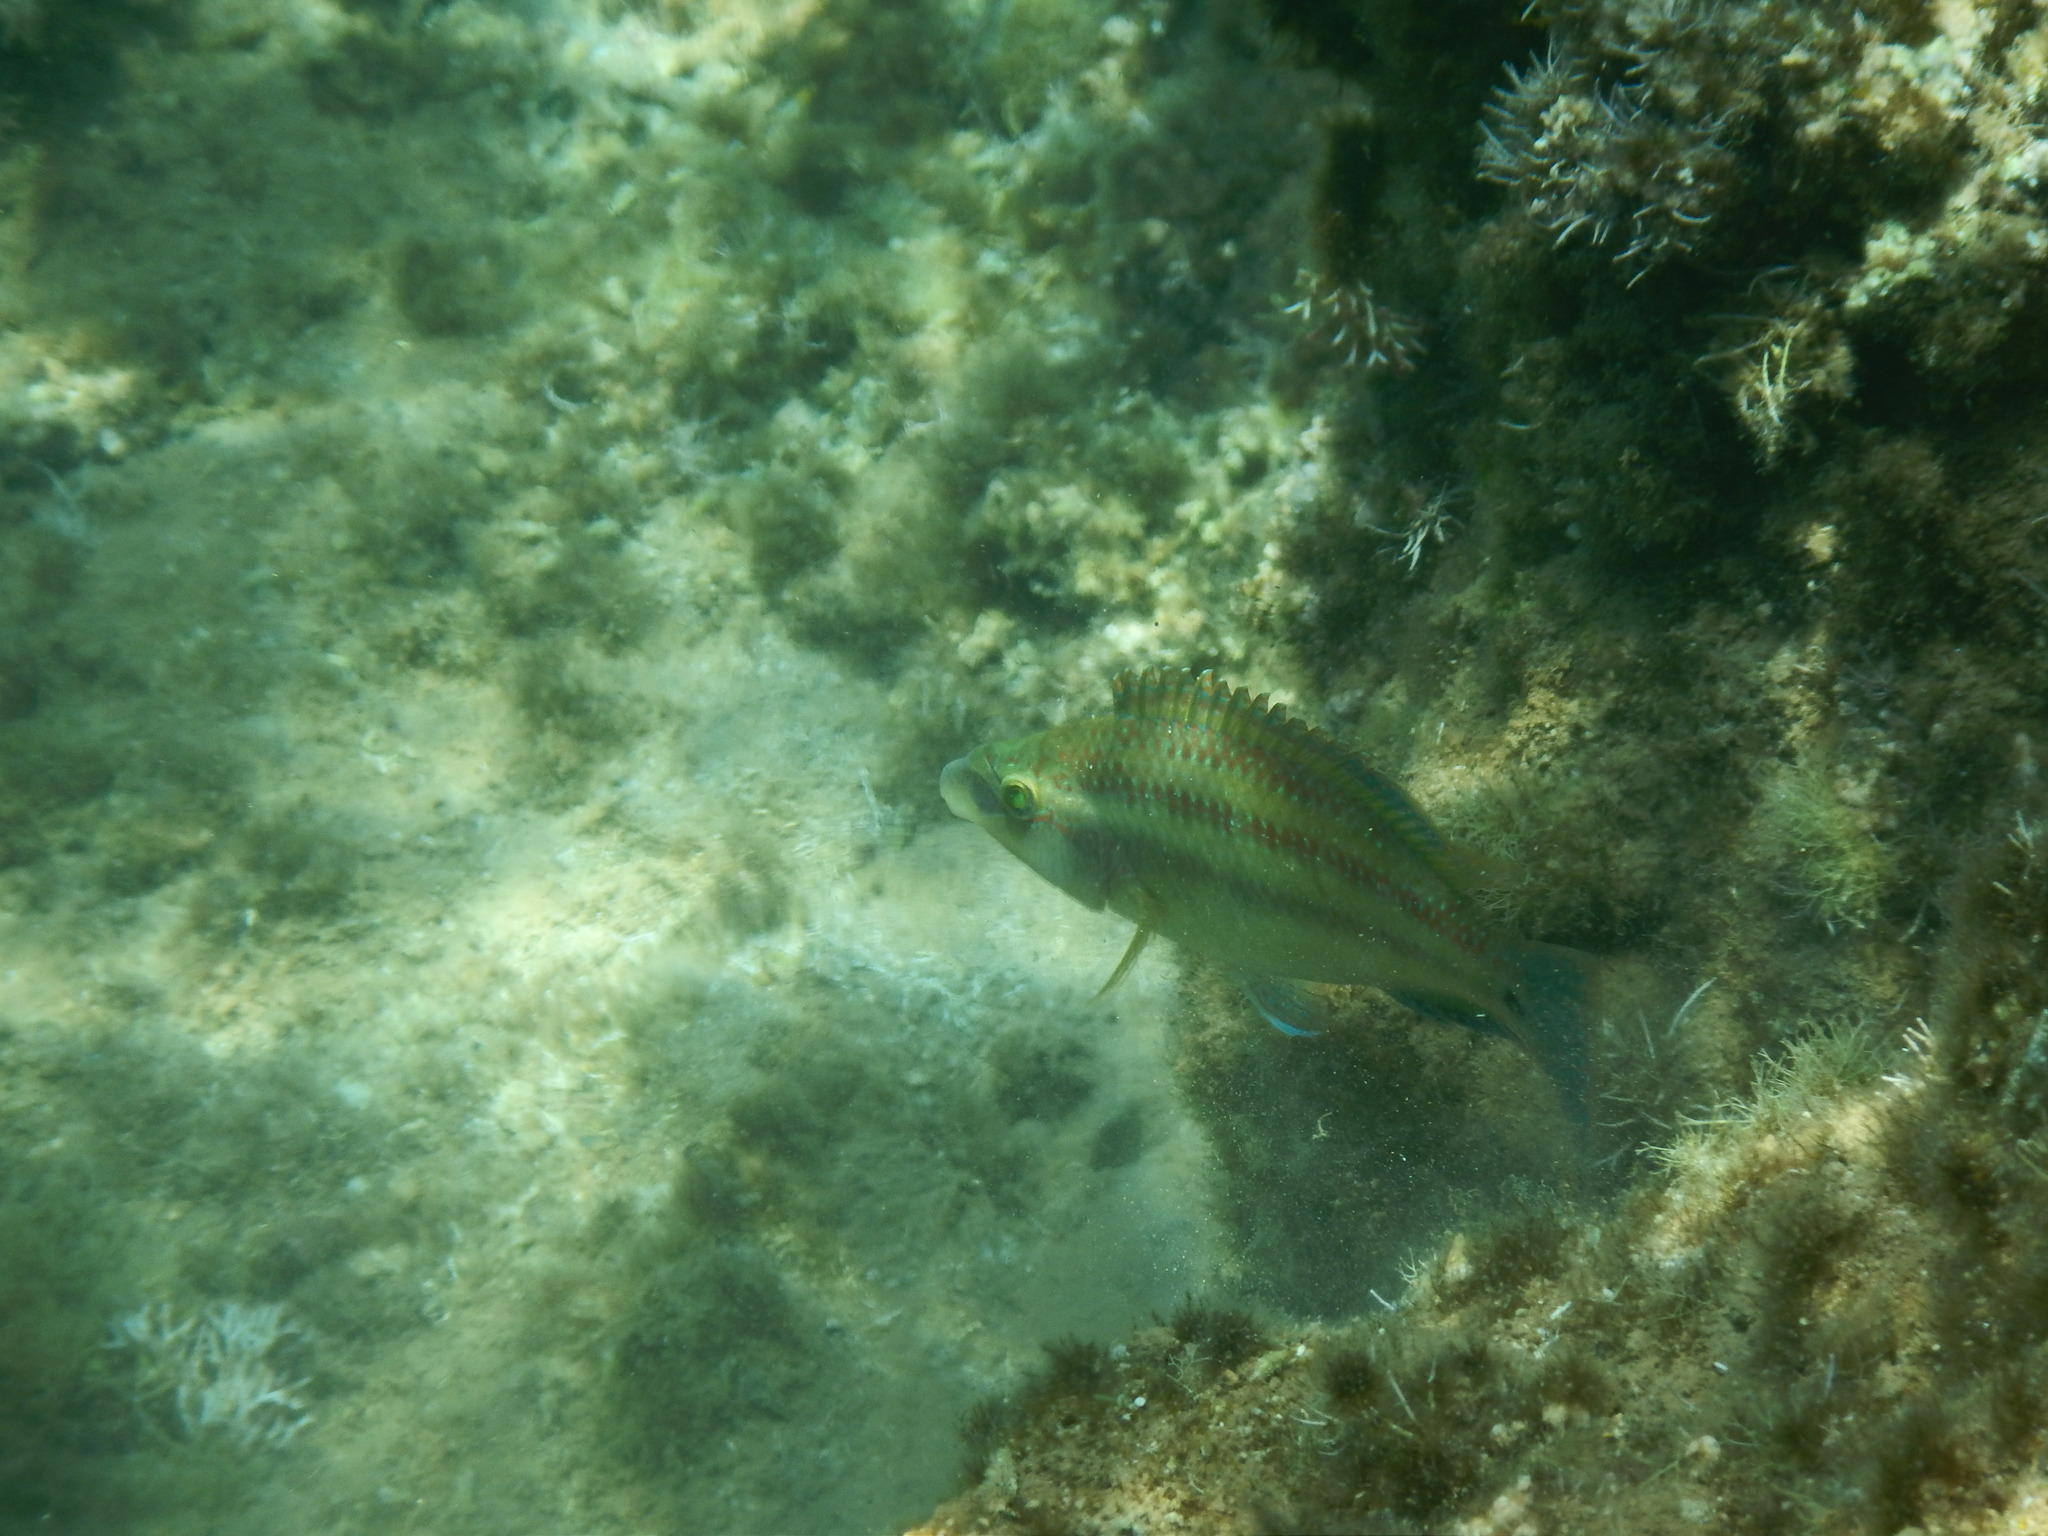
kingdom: Animalia
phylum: Chordata
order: Perciformes
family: Labridae
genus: Symphodus
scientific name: Symphodus tinca
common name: Peacock wrasse
